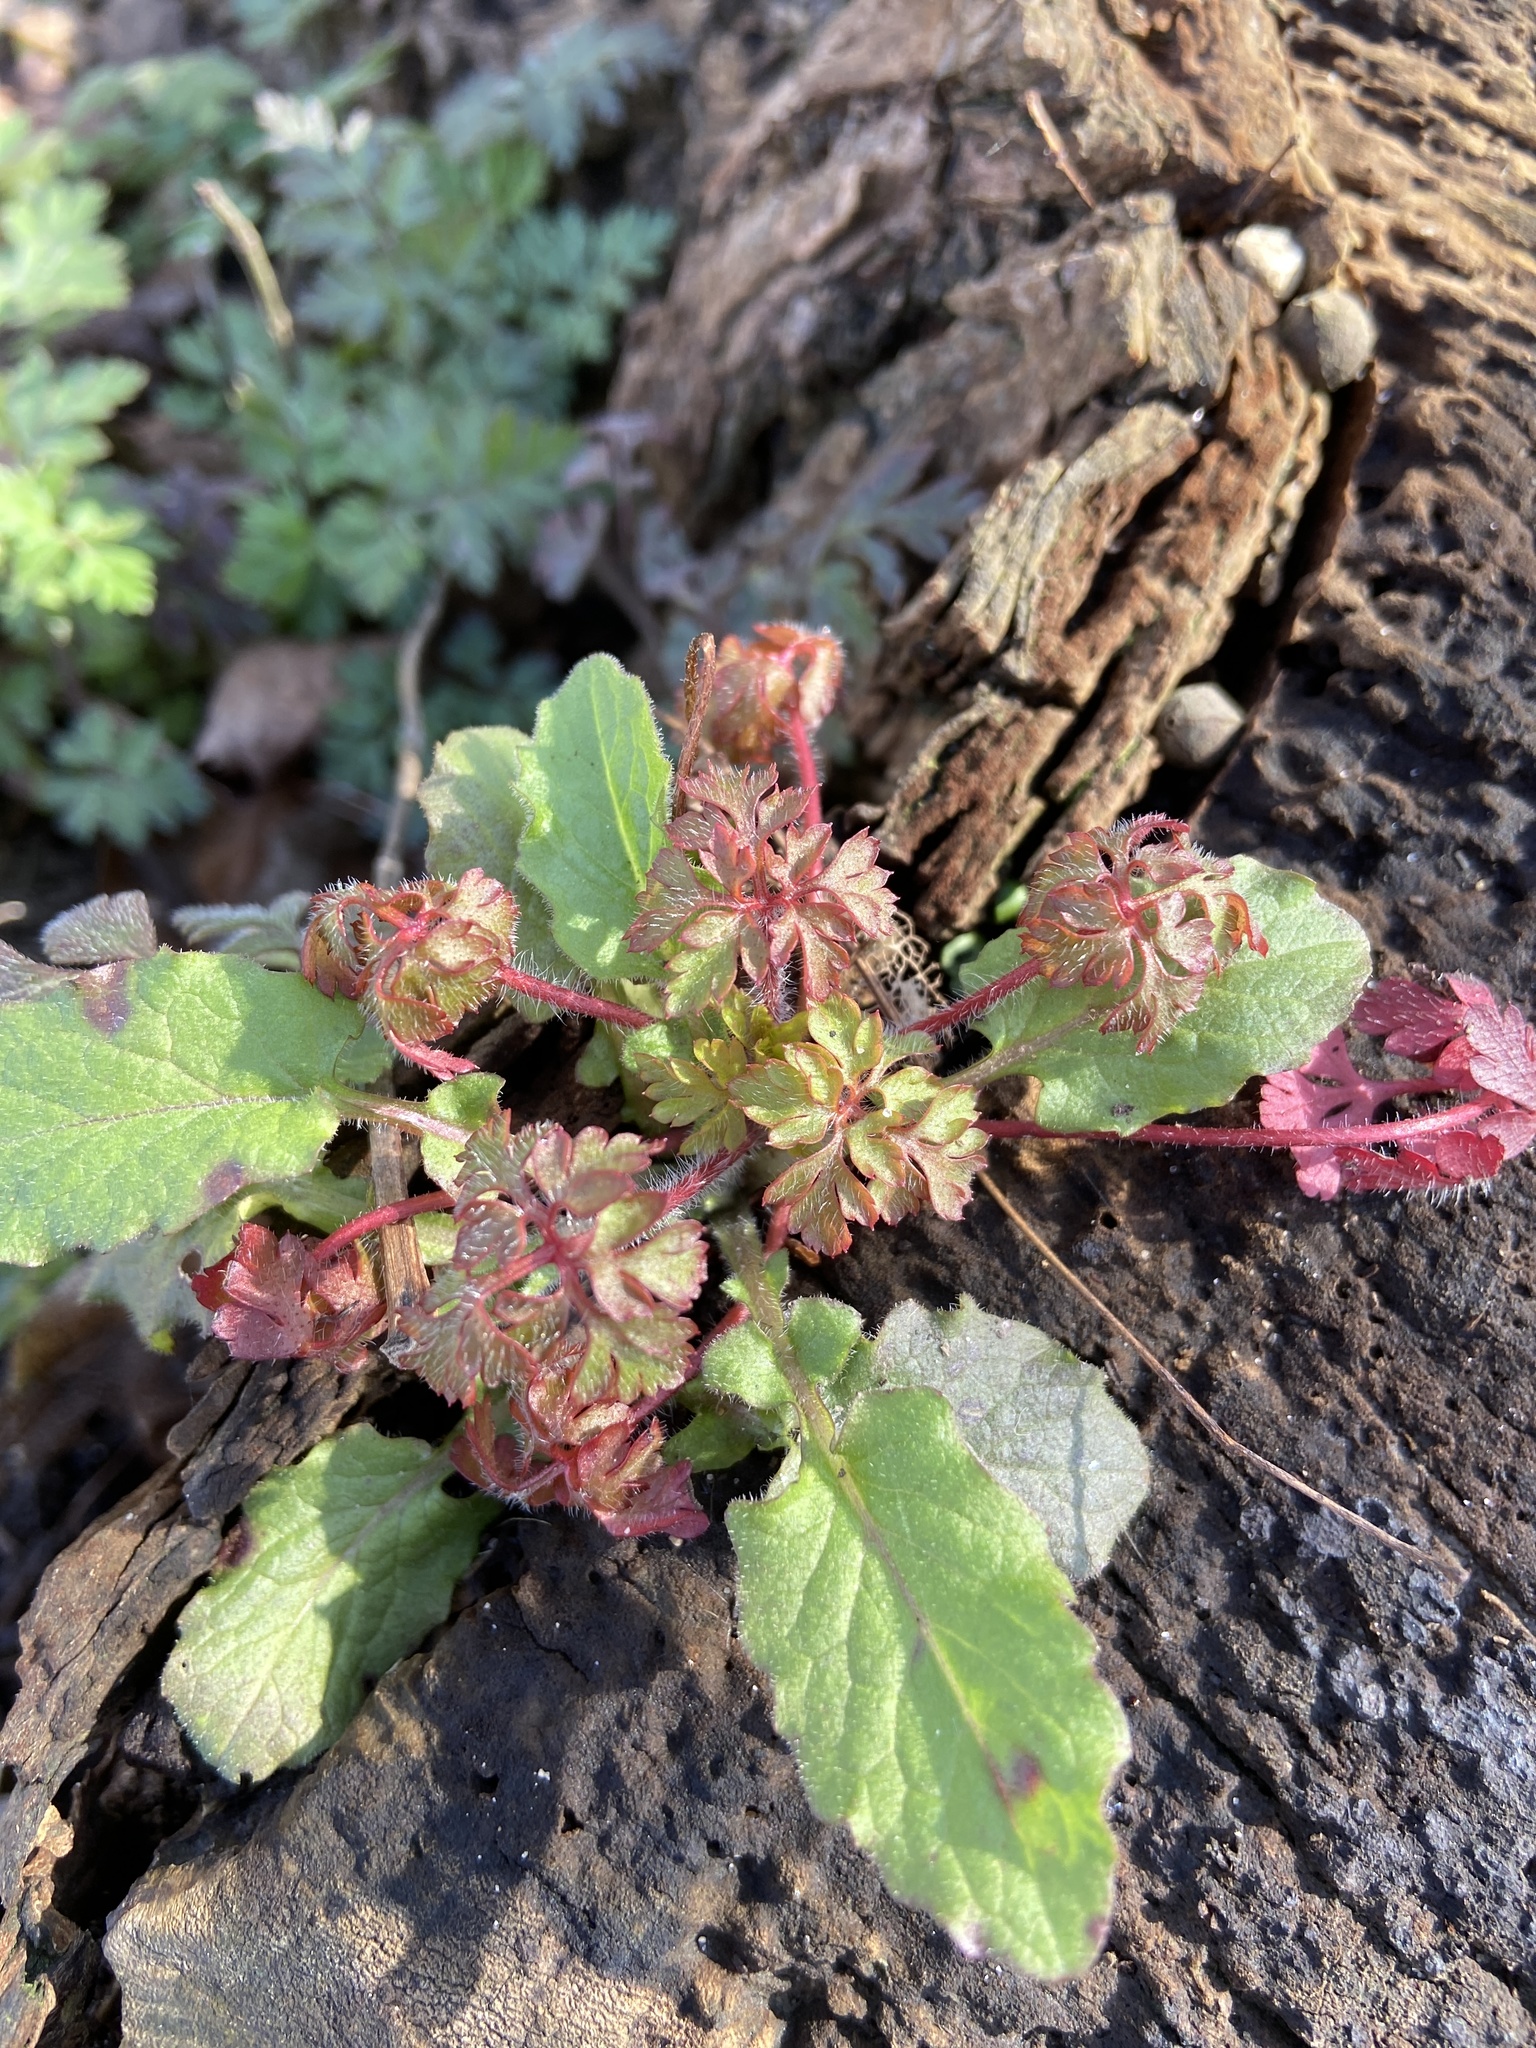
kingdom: Plantae
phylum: Tracheophyta
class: Magnoliopsida
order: Geraniales
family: Geraniaceae
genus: Geranium
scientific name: Geranium robertianum
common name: Herb-robert
